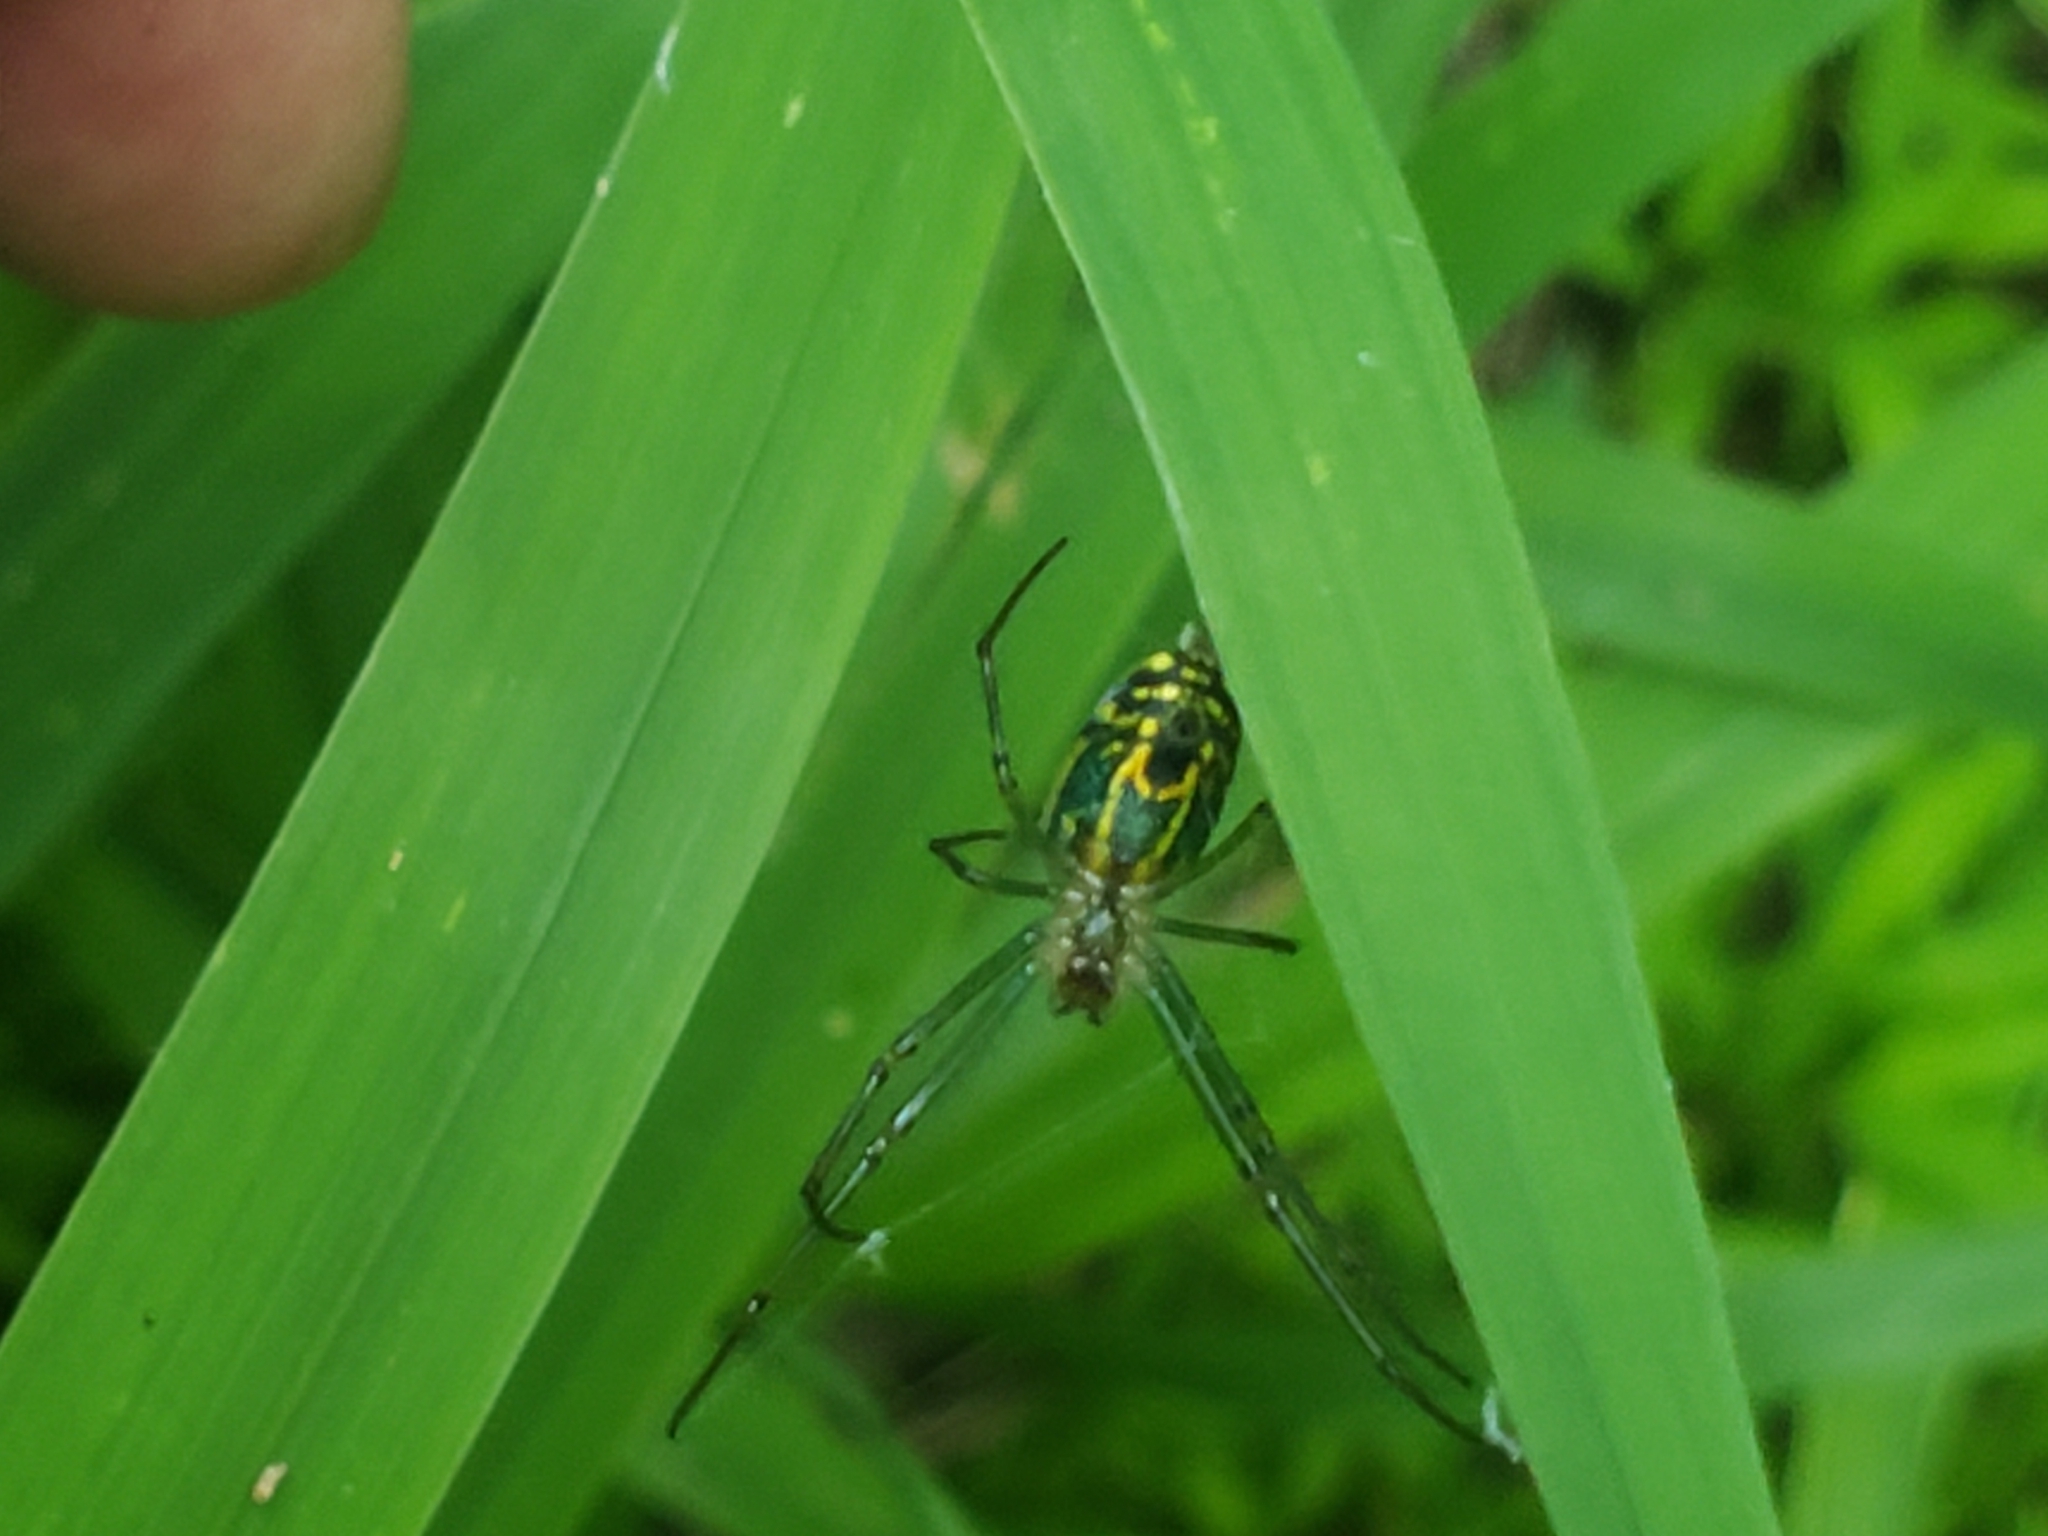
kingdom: Animalia
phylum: Arthropoda
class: Arachnida
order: Araneae
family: Tetragnathidae
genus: Leucauge
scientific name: Leucauge venusta
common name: Longjawed orb weavers
